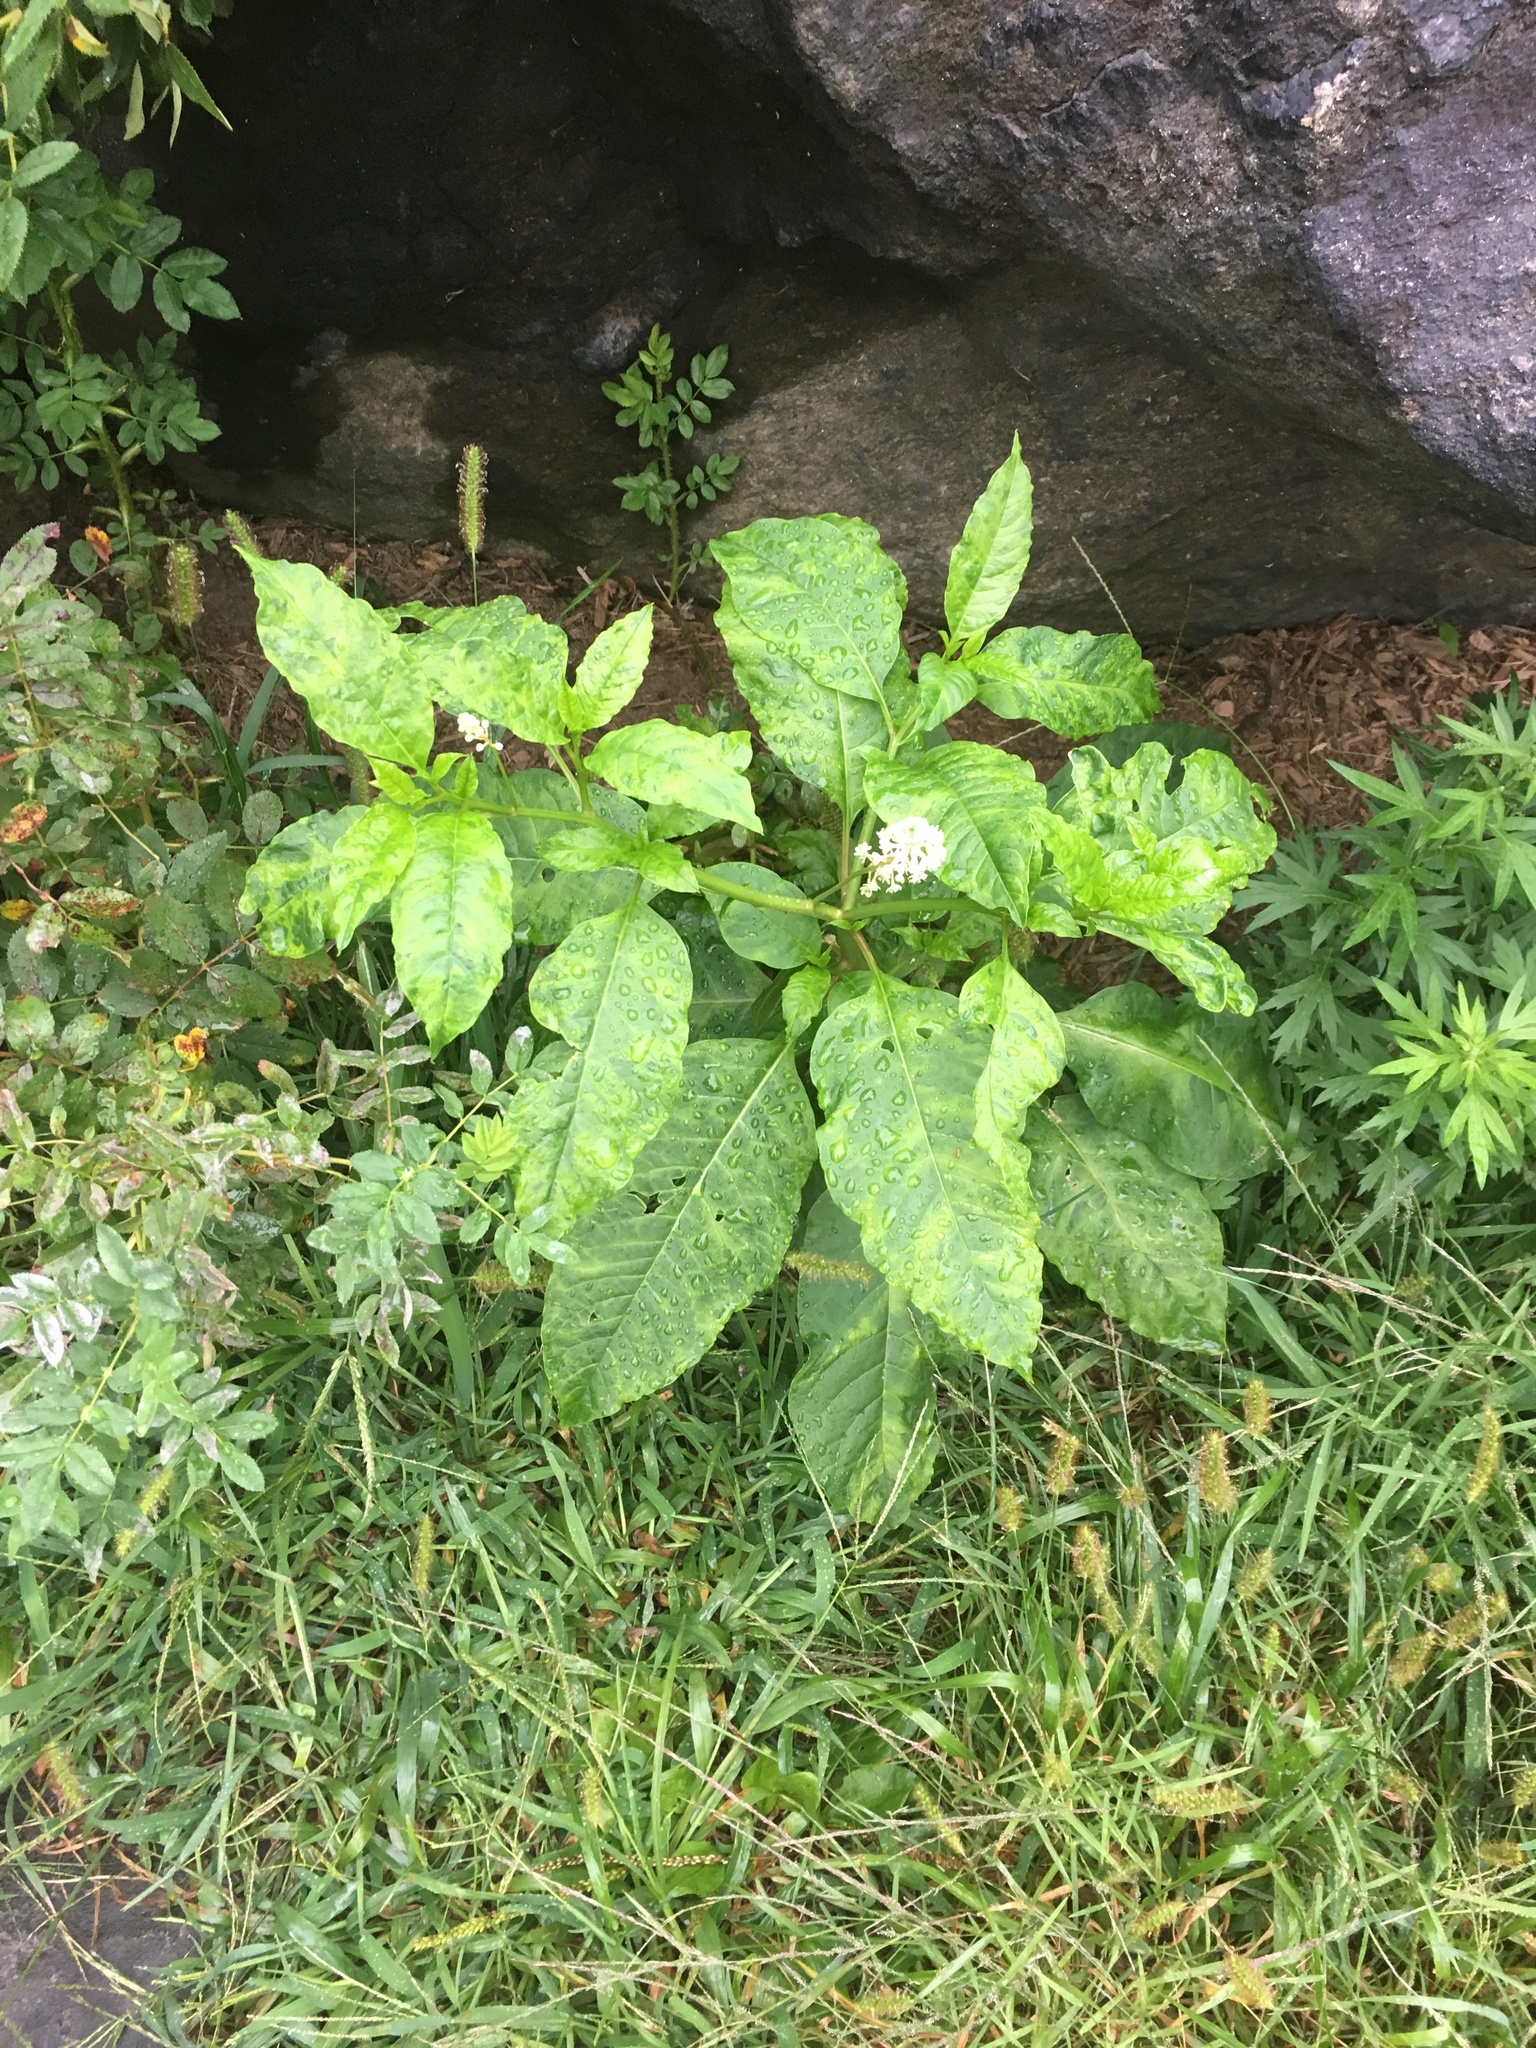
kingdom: Plantae
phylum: Tracheophyta
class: Magnoliopsida
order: Caryophyllales
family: Phytolaccaceae
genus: Phytolacca
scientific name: Phytolacca americana
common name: American pokeweed
